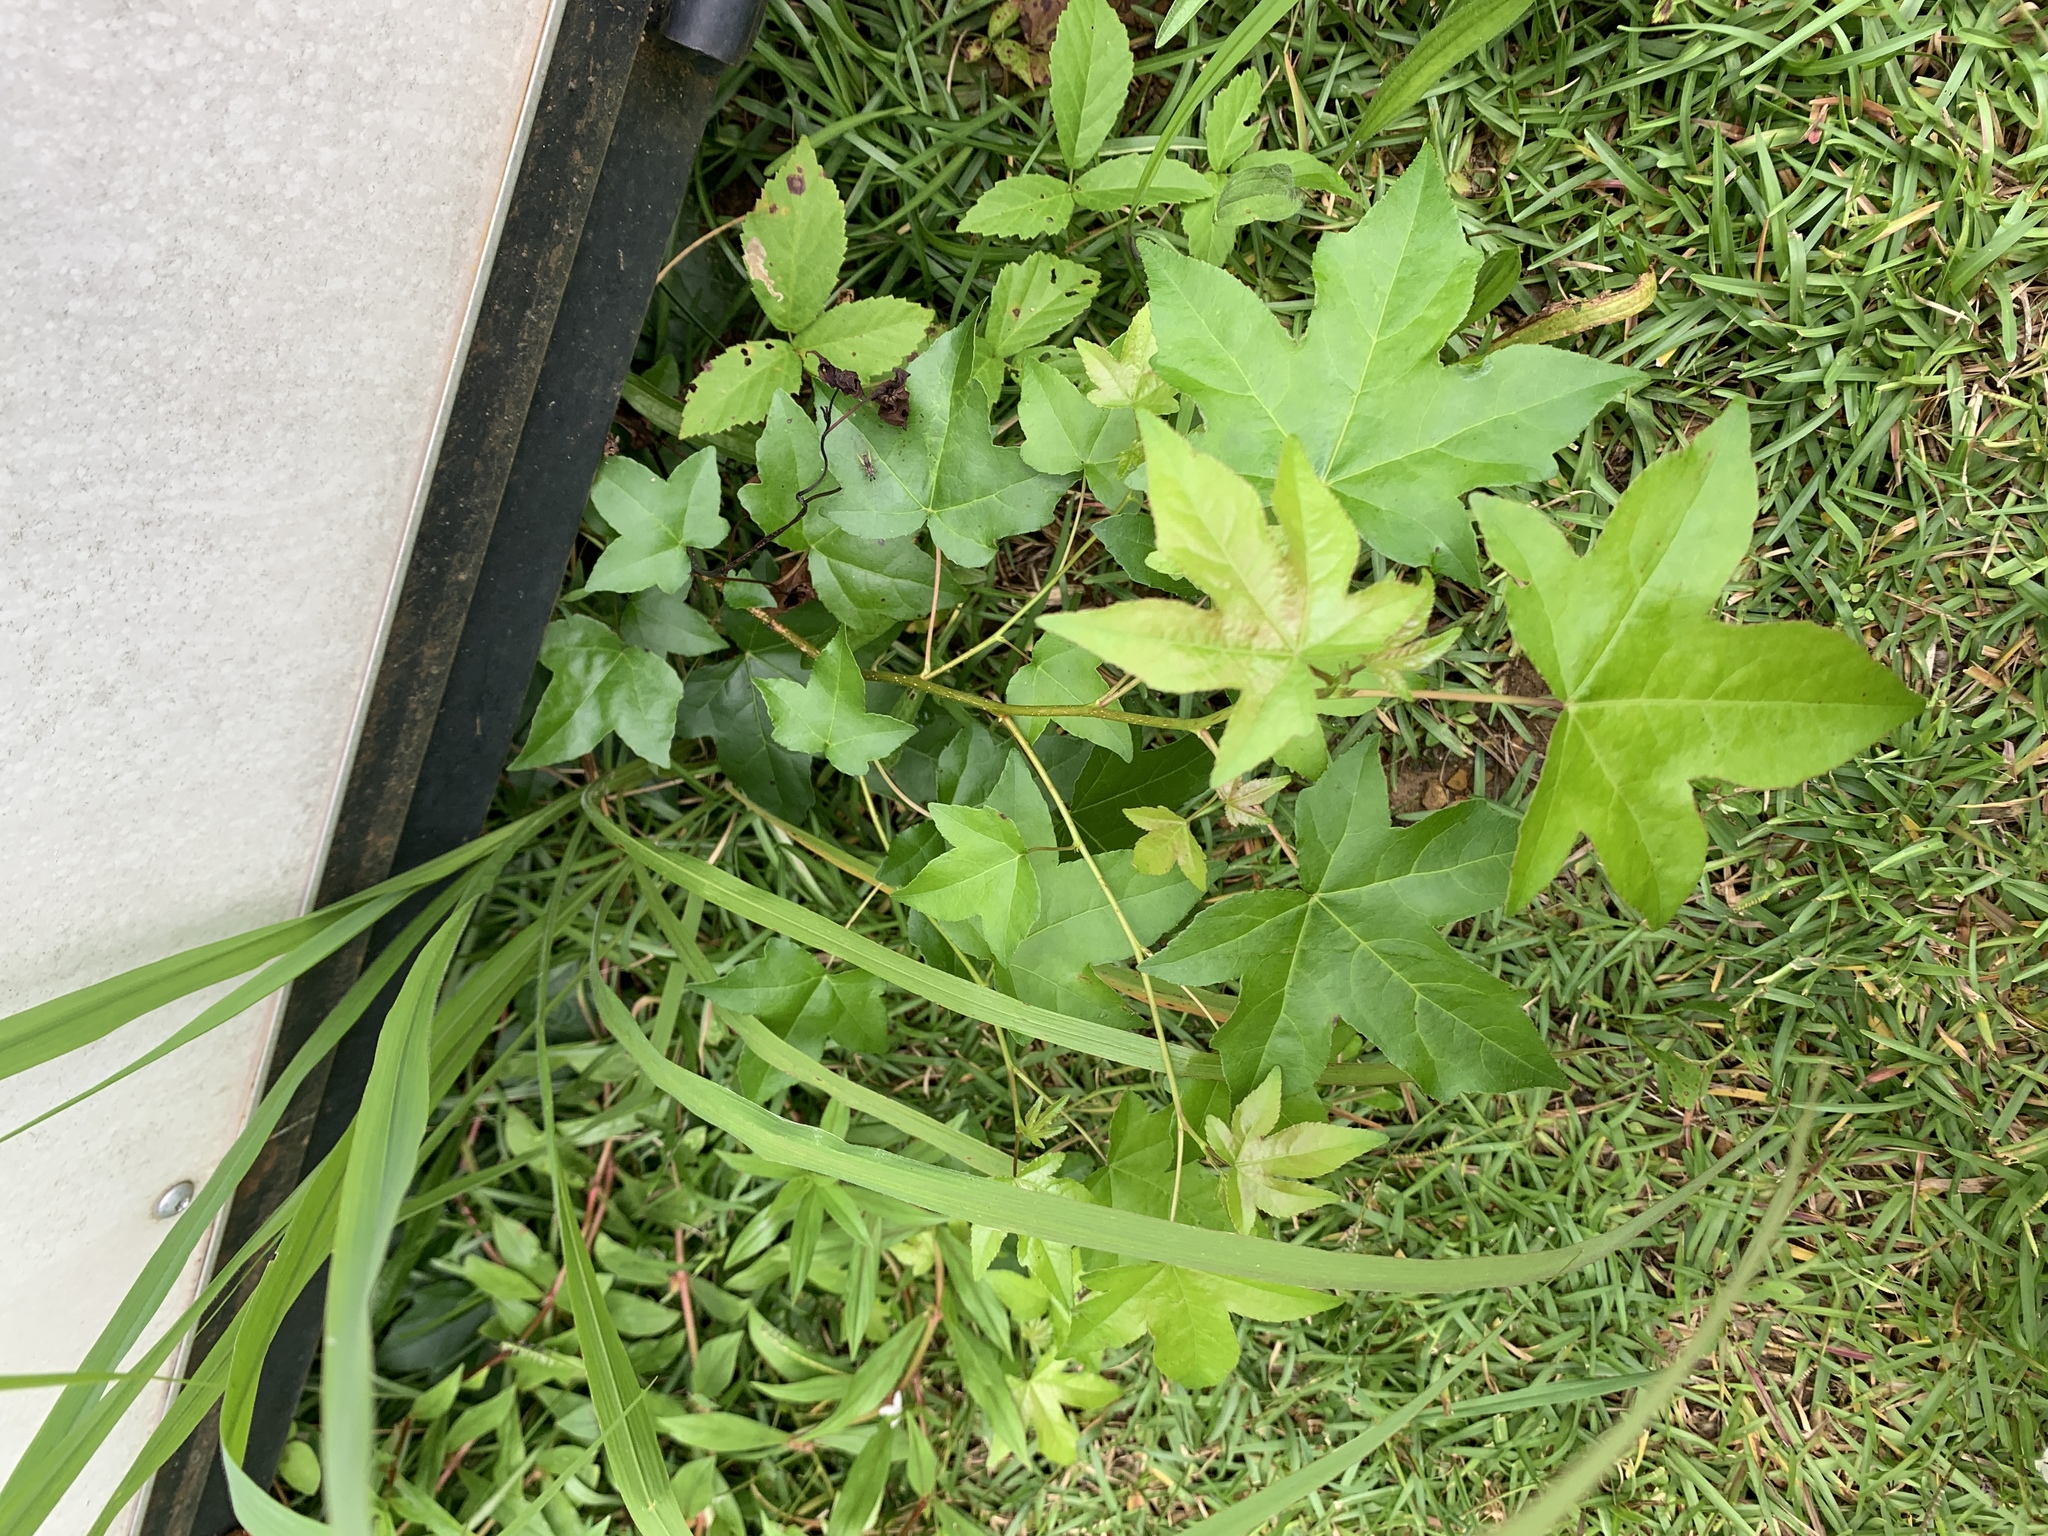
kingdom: Plantae
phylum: Tracheophyta
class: Magnoliopsida
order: Saxifragales
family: Altingiaceae
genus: Liquidambar
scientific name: Liquidambar styraciflua
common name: Sweet gum
